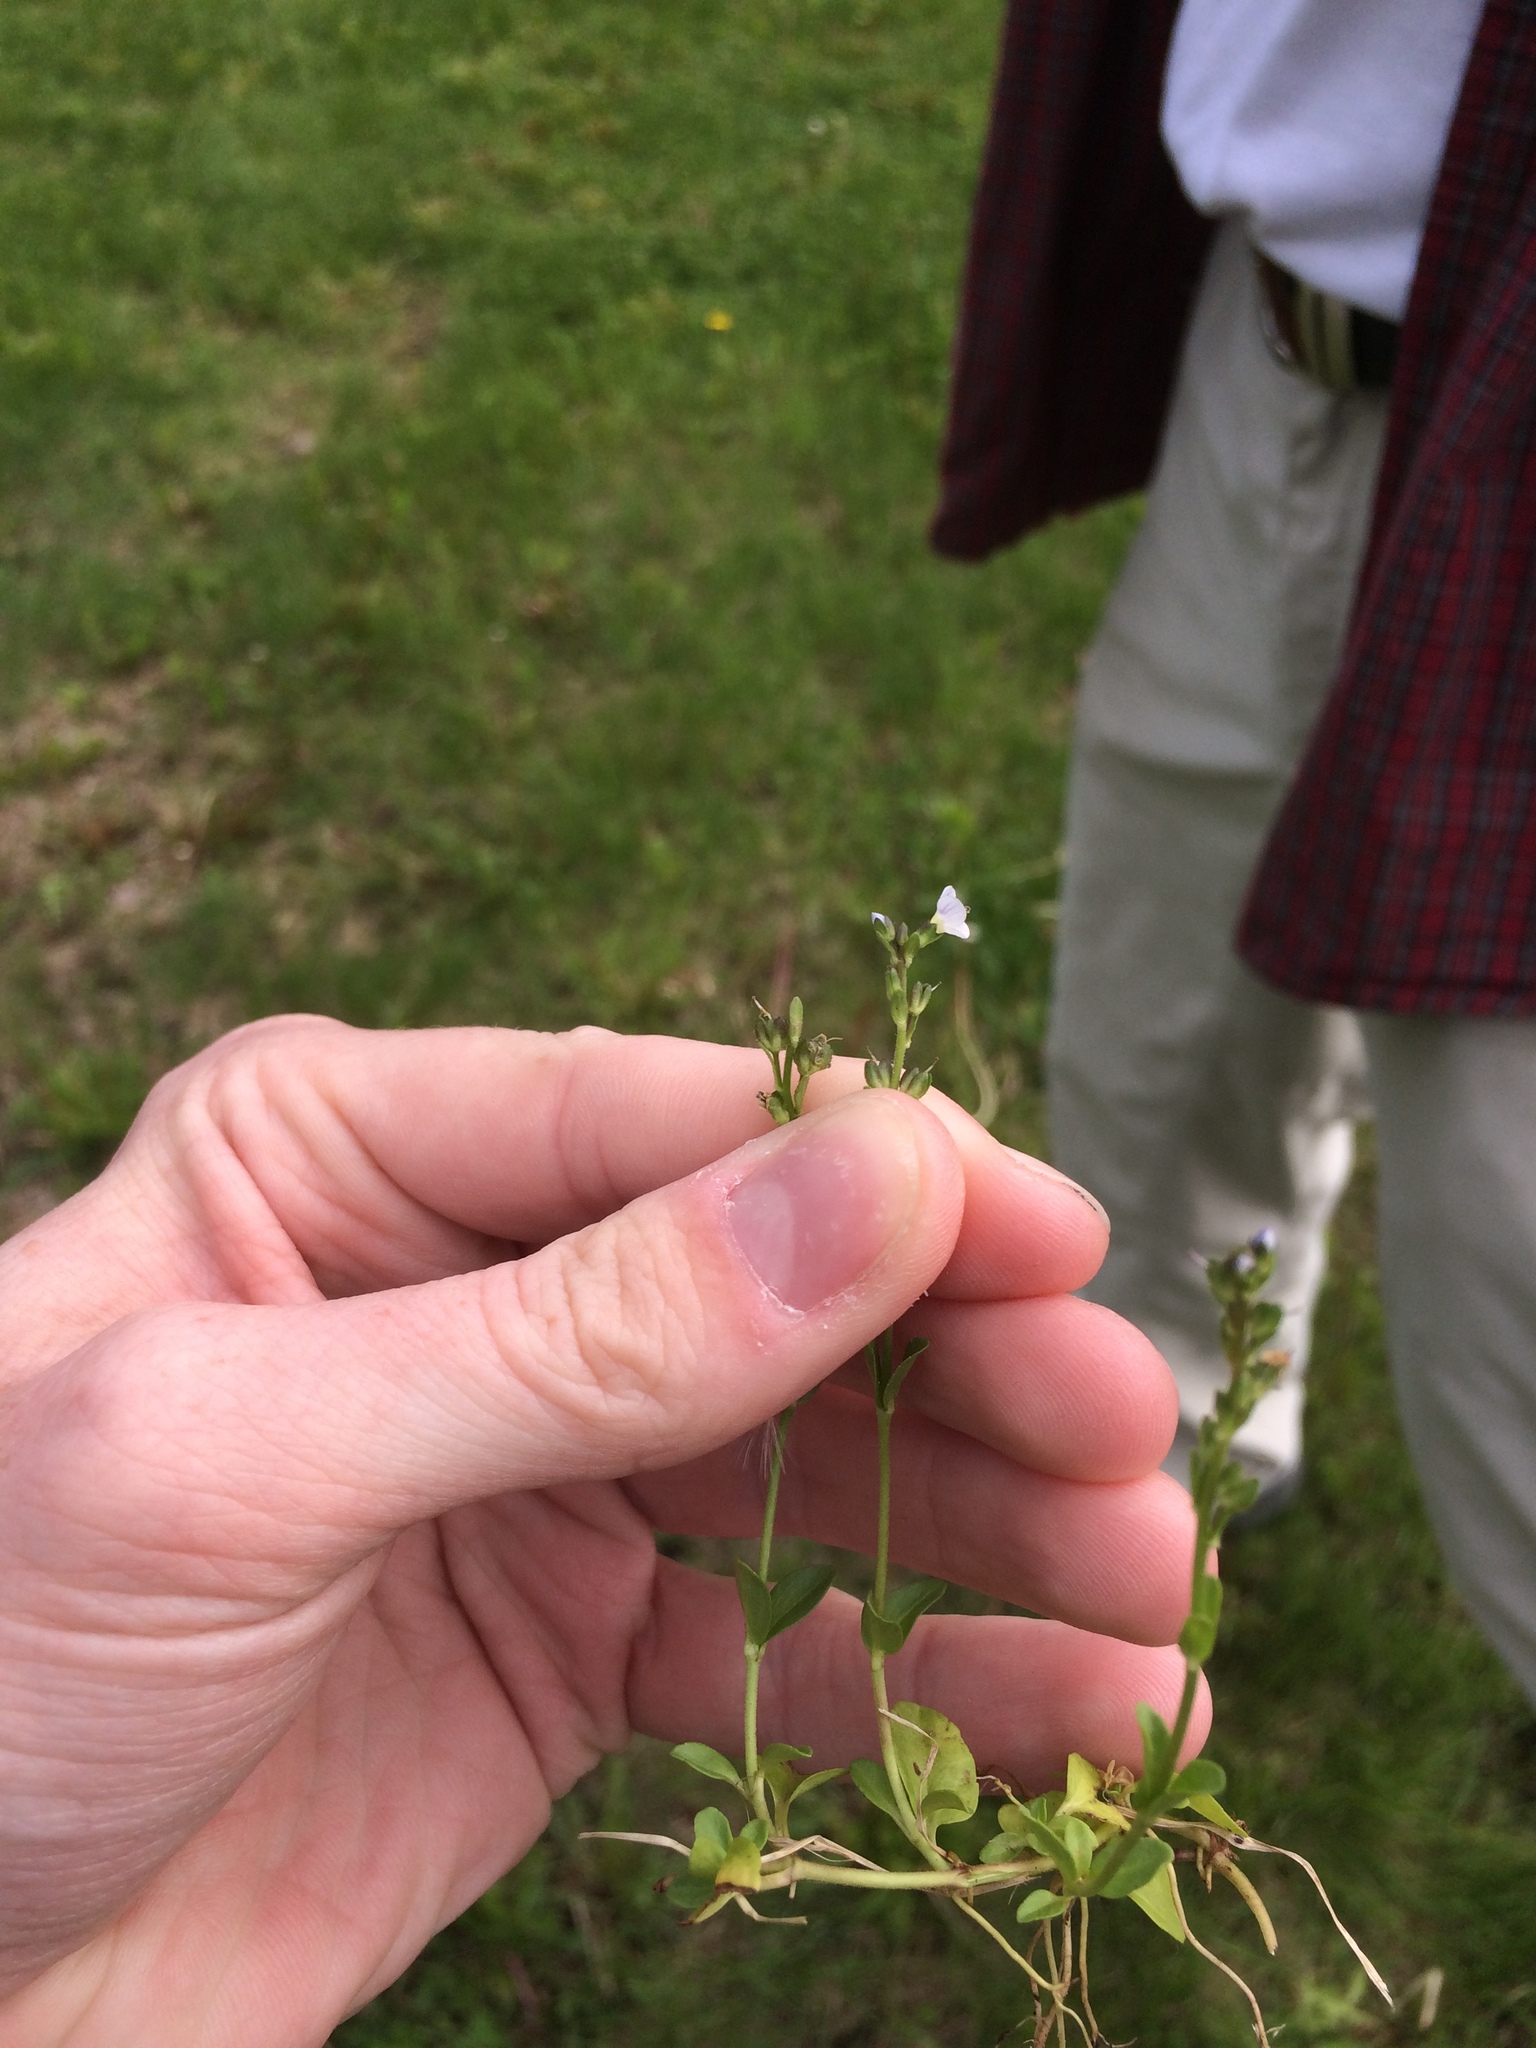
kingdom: Plantae
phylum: Tracheophyta
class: Magnoliopsida
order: Lamiales
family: Plantaginaceae
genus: Veronica
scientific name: Veronica serpyllifolia
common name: Thyme-leaved speedwell
